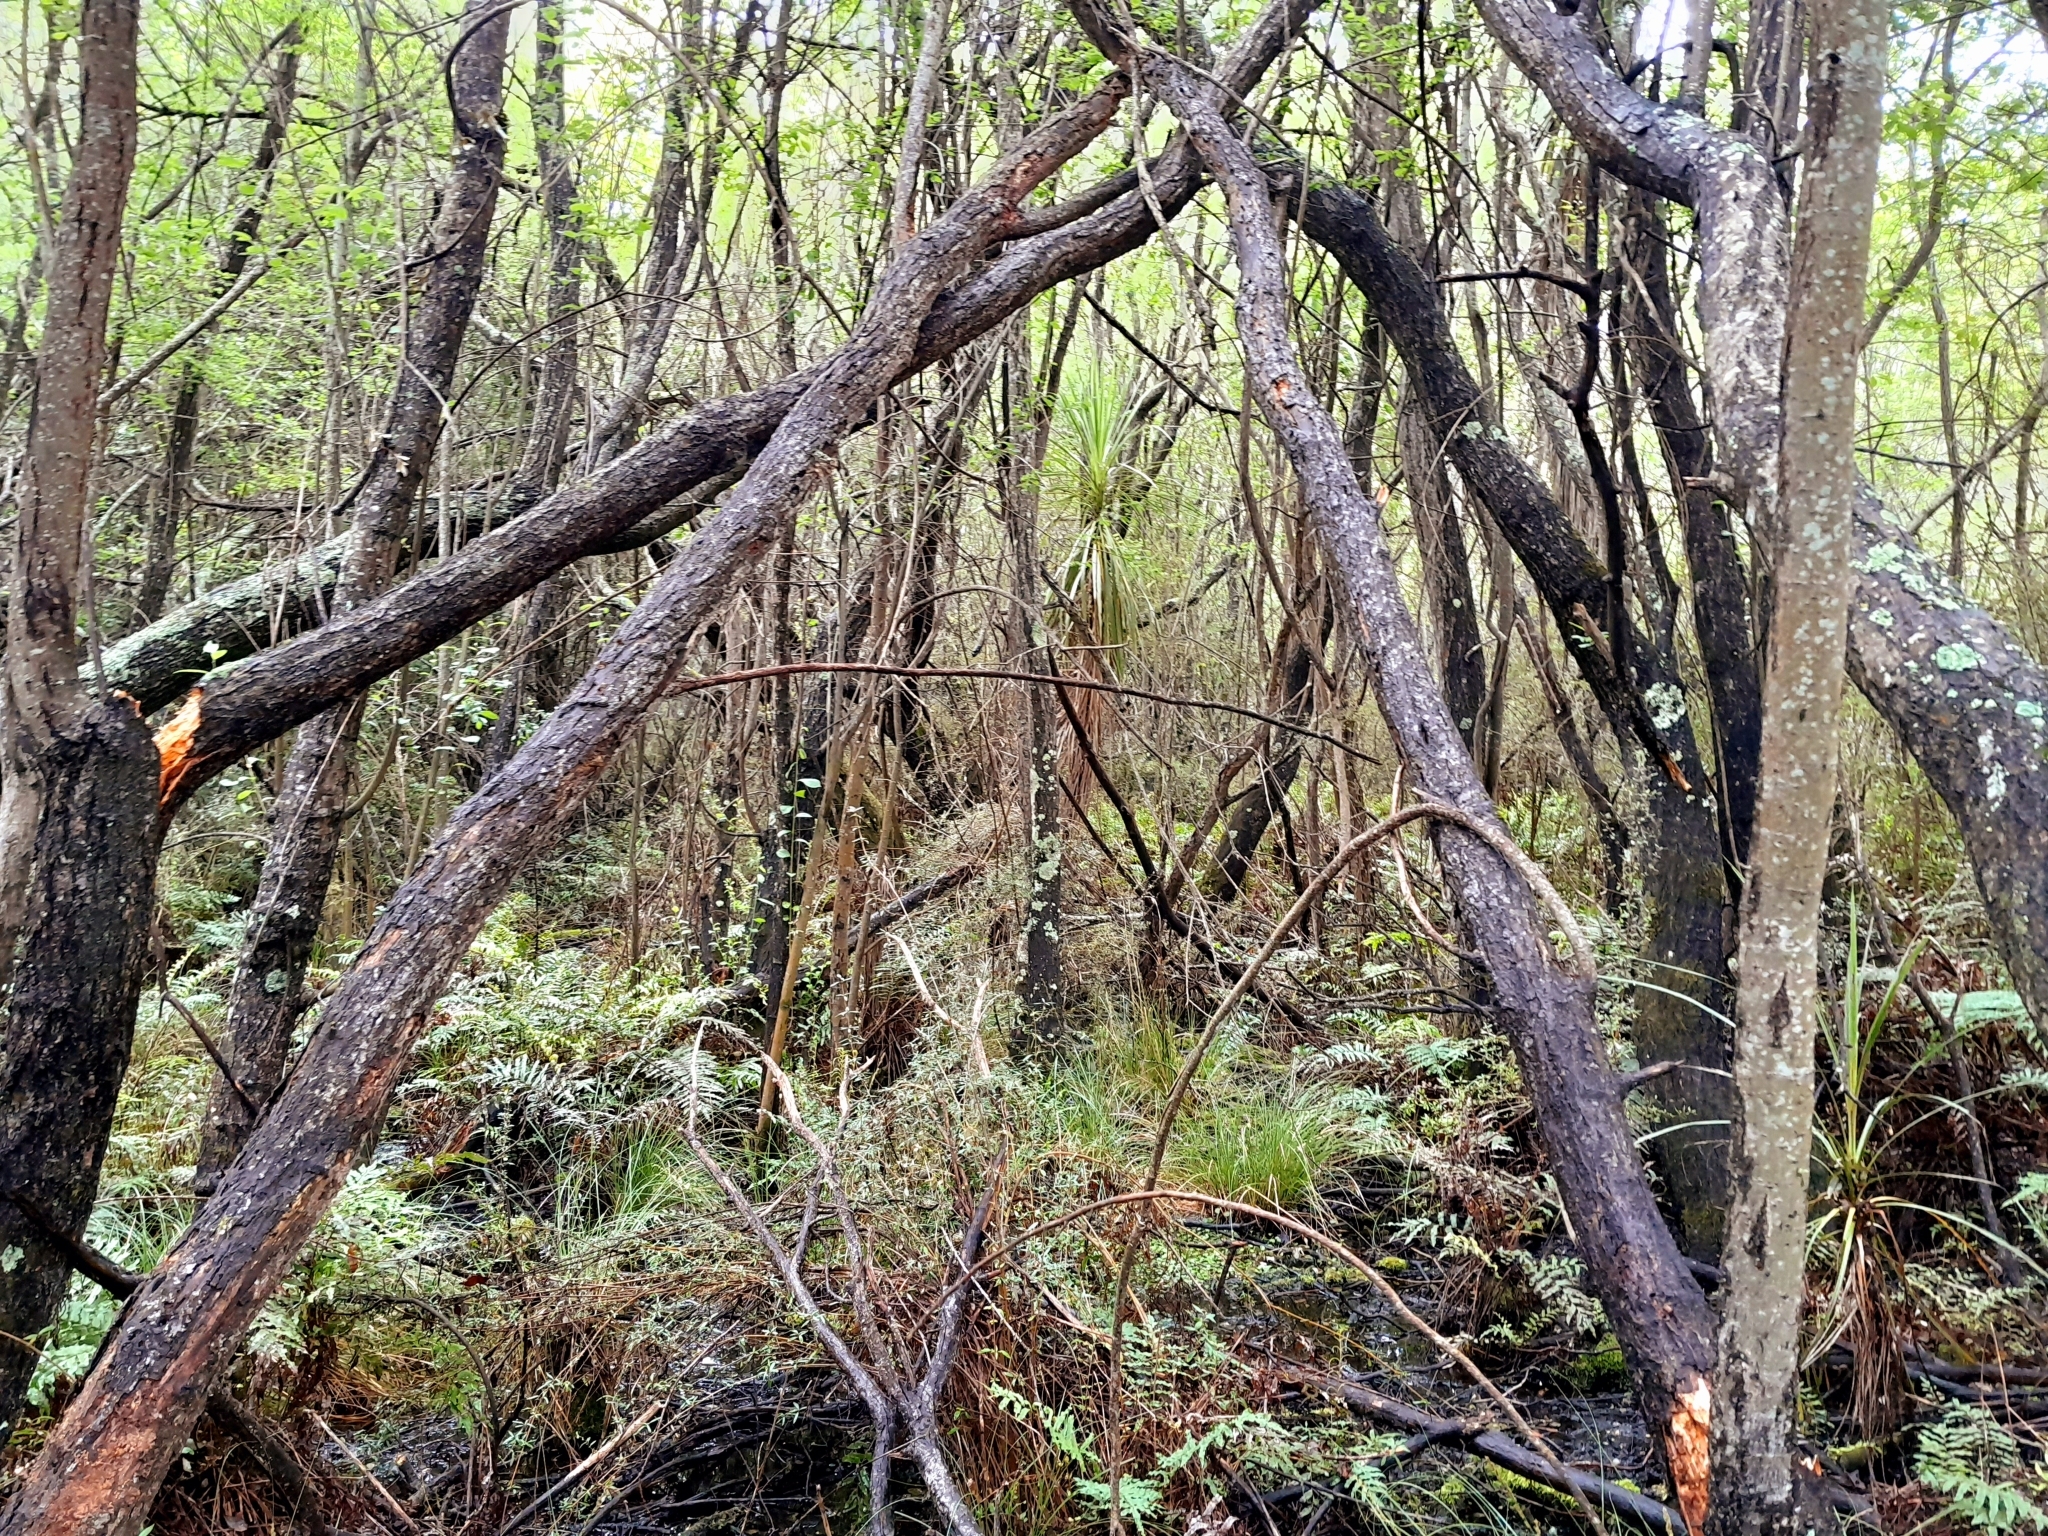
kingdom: Plantae
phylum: Tracheophyta
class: Magnoliopsida
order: Malpighiales
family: Salicaceae
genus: Salix
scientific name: Salix cinerea
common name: Common sallow
